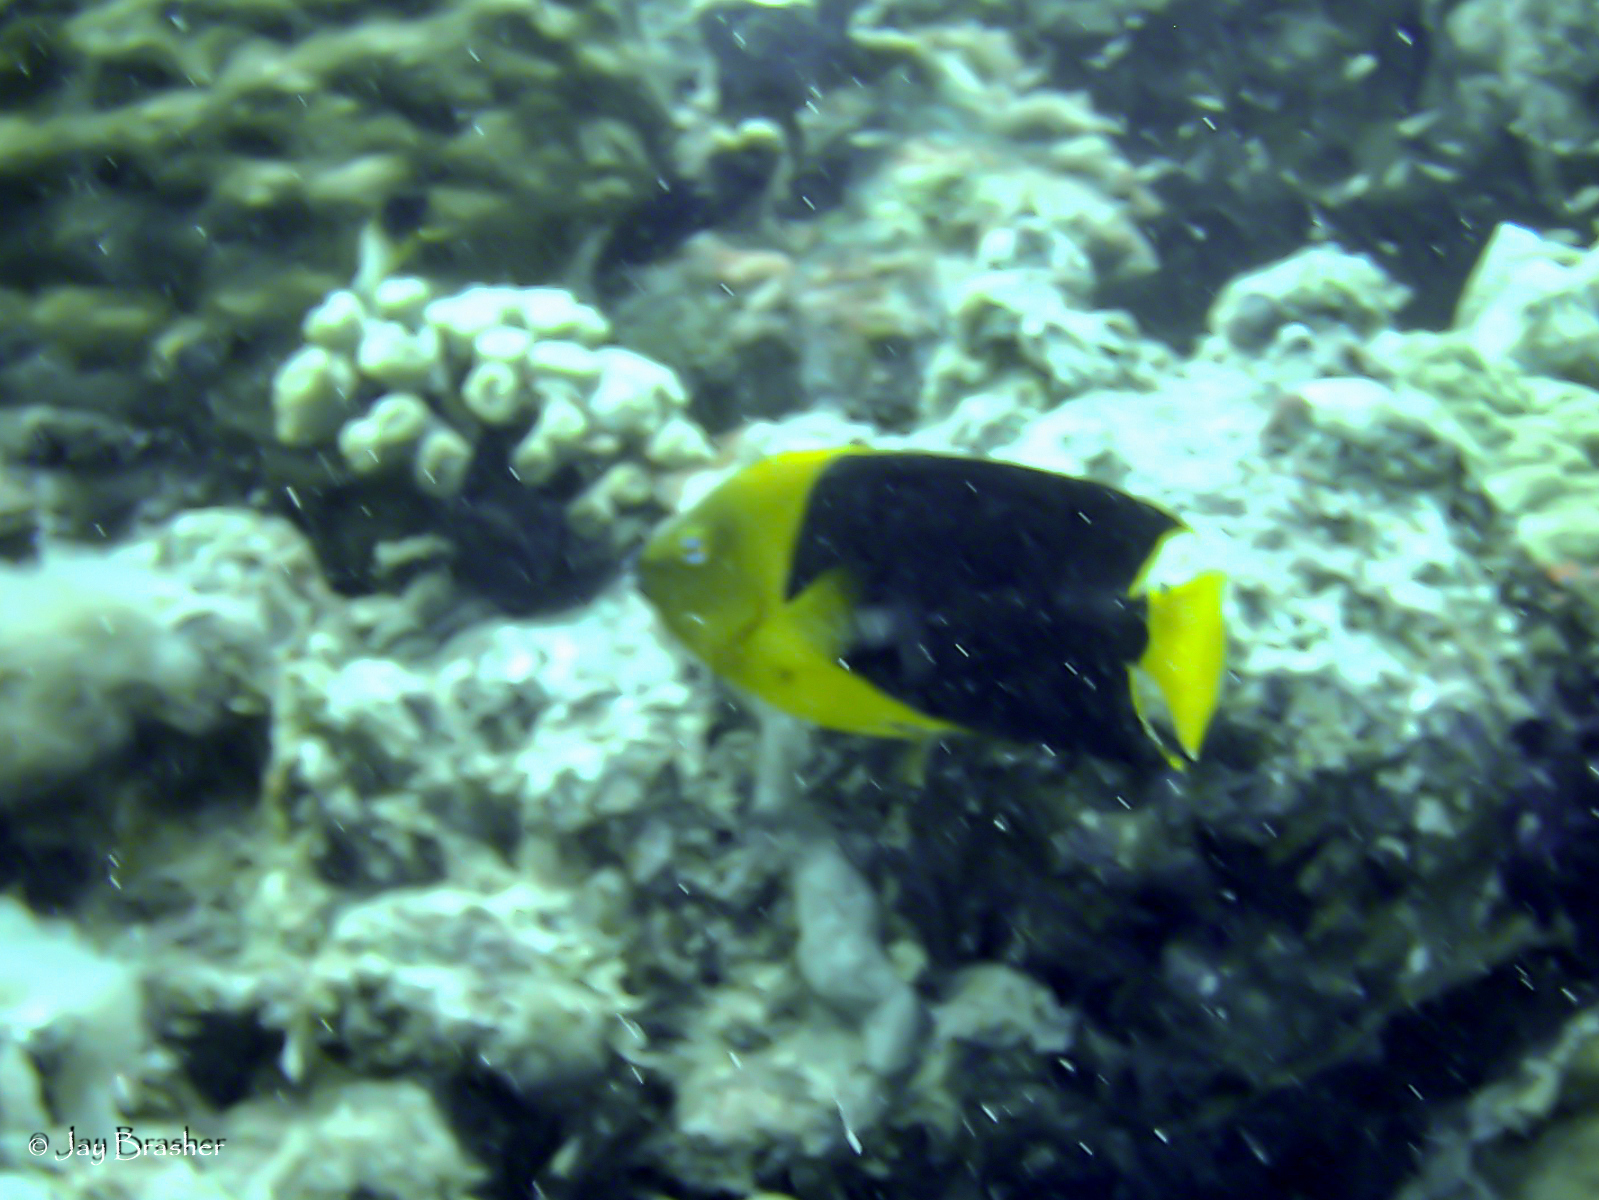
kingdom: Animalia
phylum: Chordata
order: Perciformes
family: Pomacanthidae
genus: Holacanthus
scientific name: Holacanthus tricolor
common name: Rock beauty
